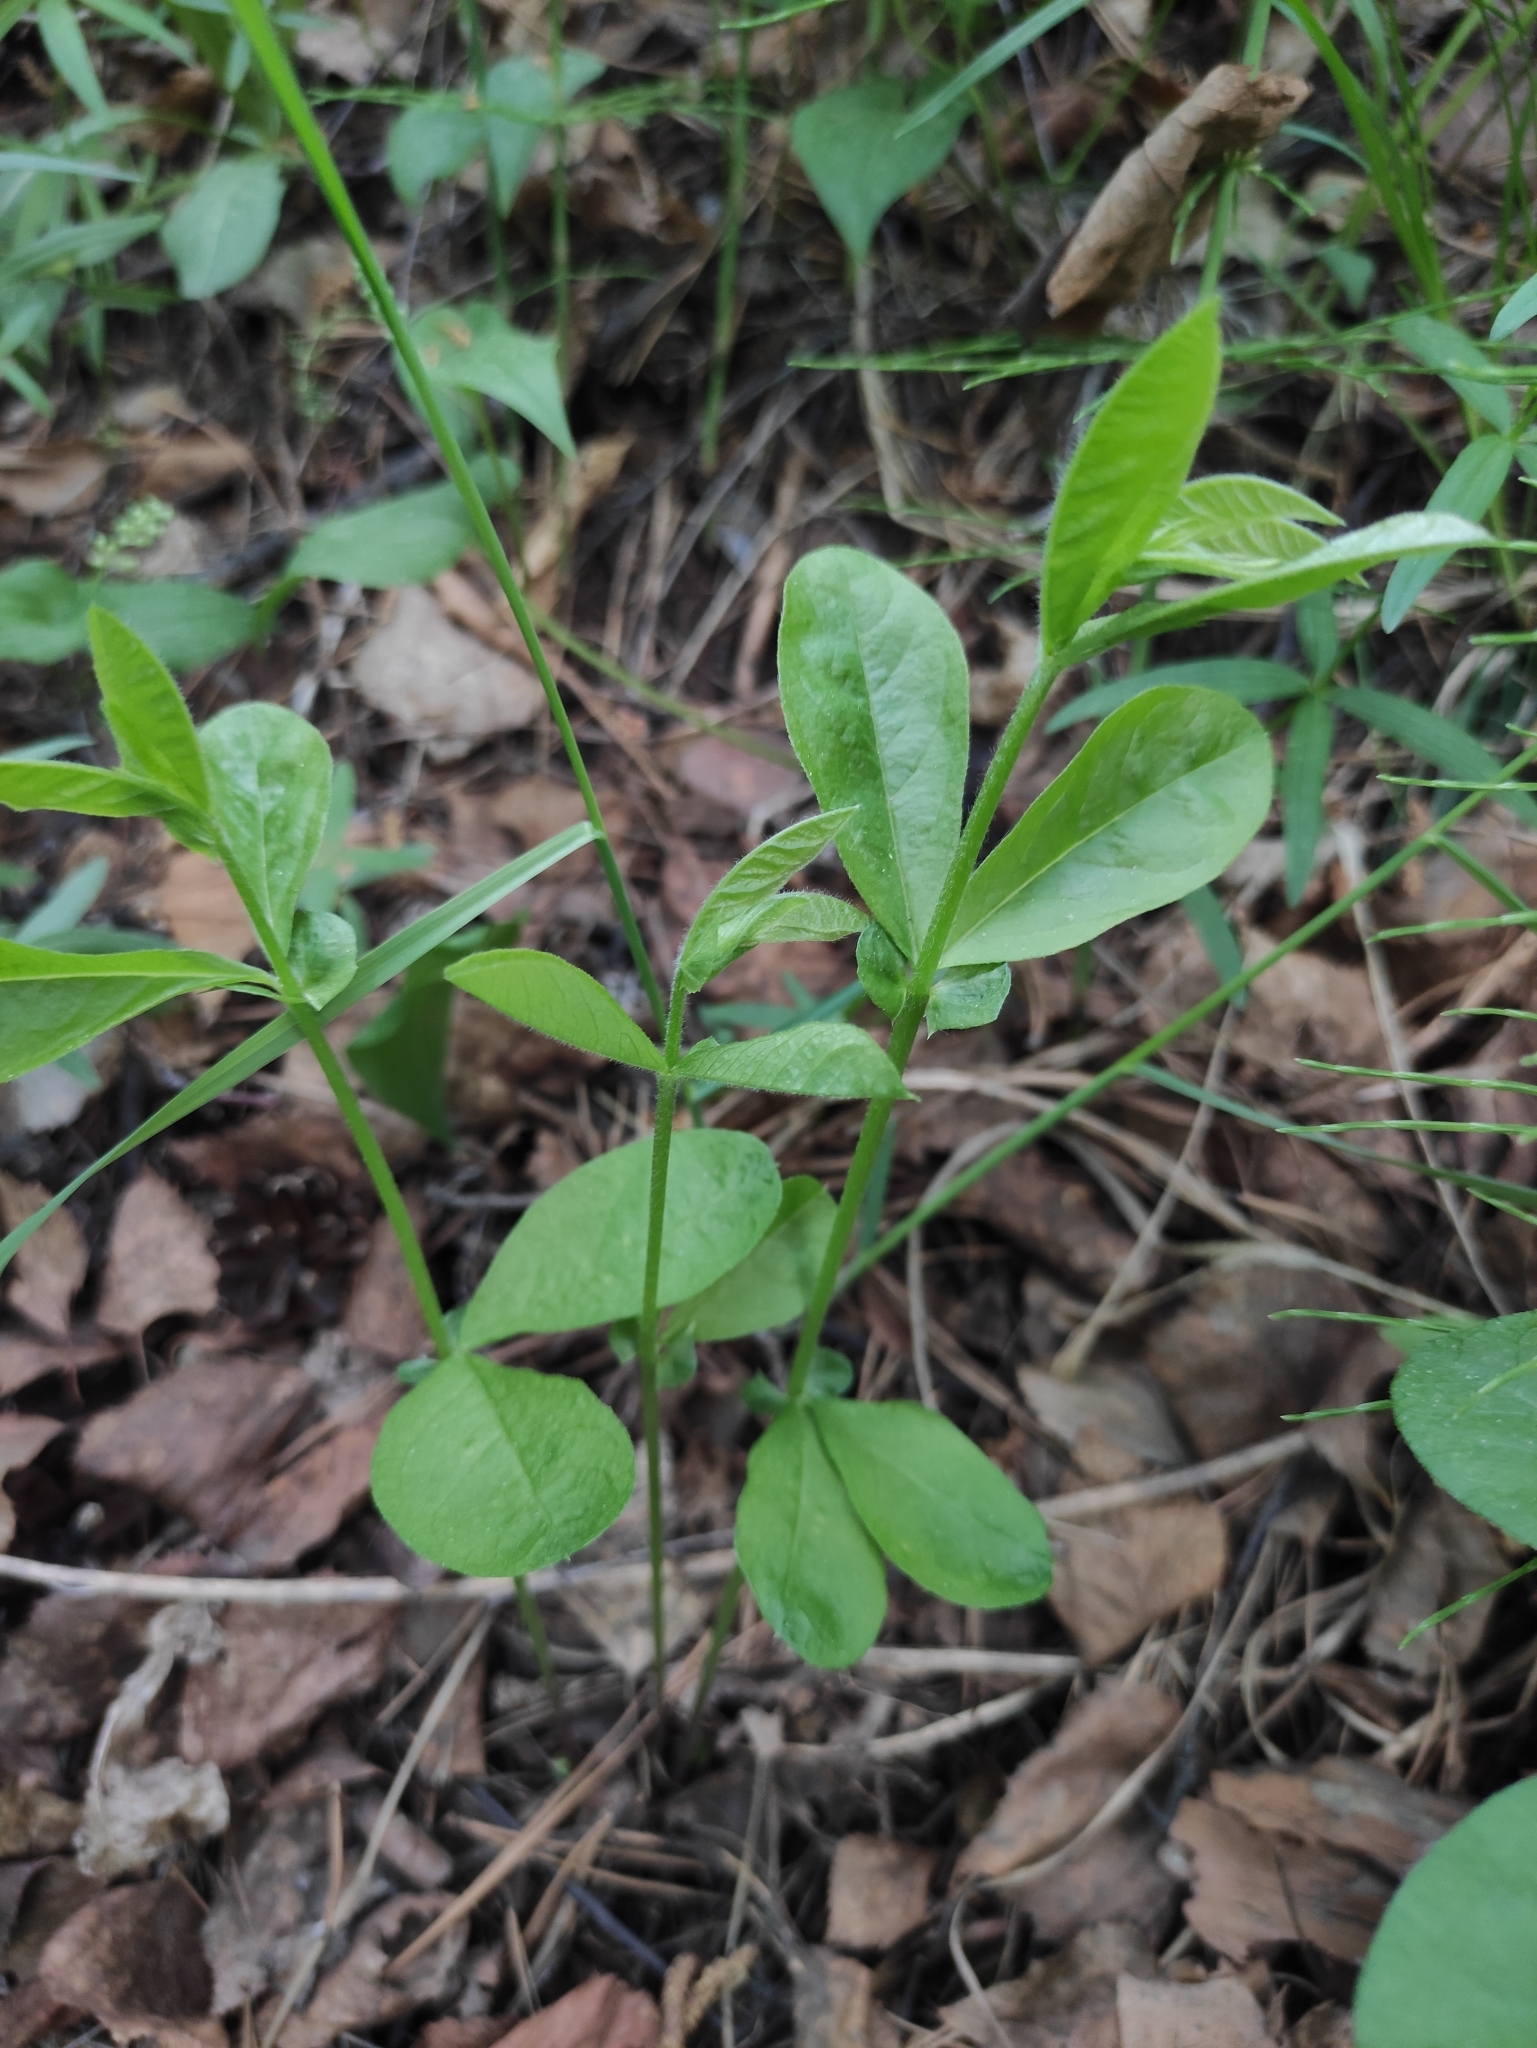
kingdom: Plantae
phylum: Tracheophyta
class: Magnoliopsida
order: Fabales
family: Fabaceae
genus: Vicia
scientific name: Vicia unijuga
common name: Two-leaf vetch
